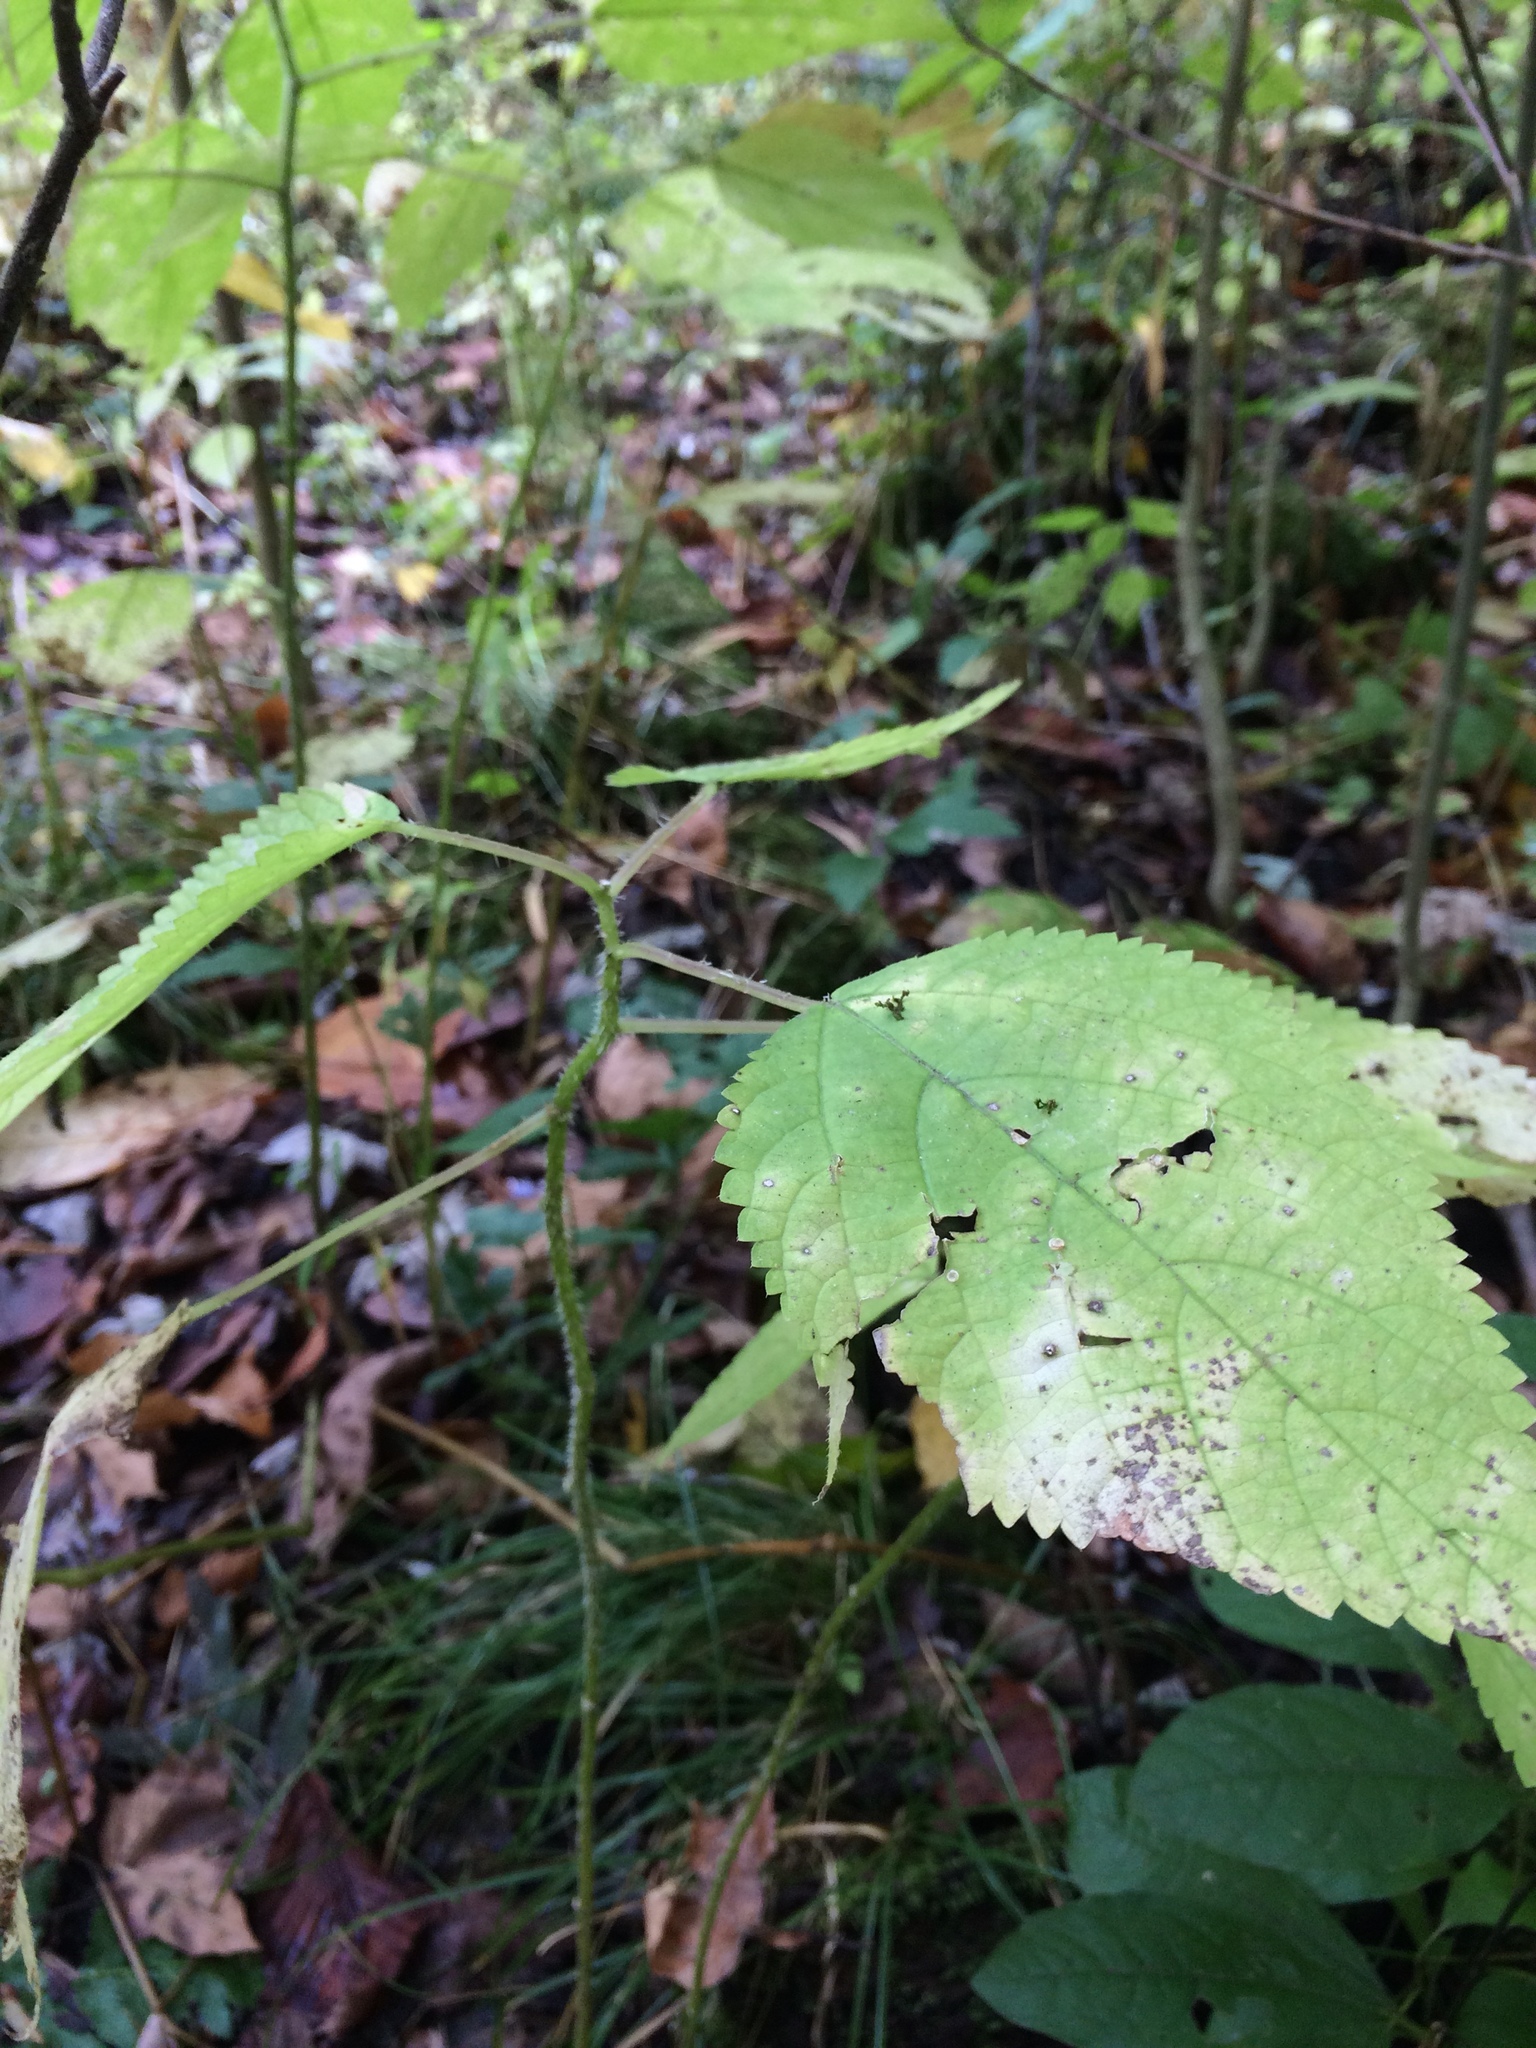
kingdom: Plantae
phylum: Tracheophyta
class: Magnoliopsida
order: Rosales
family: Urticaceae
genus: Laportea
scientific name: Laportea canadensis
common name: Canada nettle
